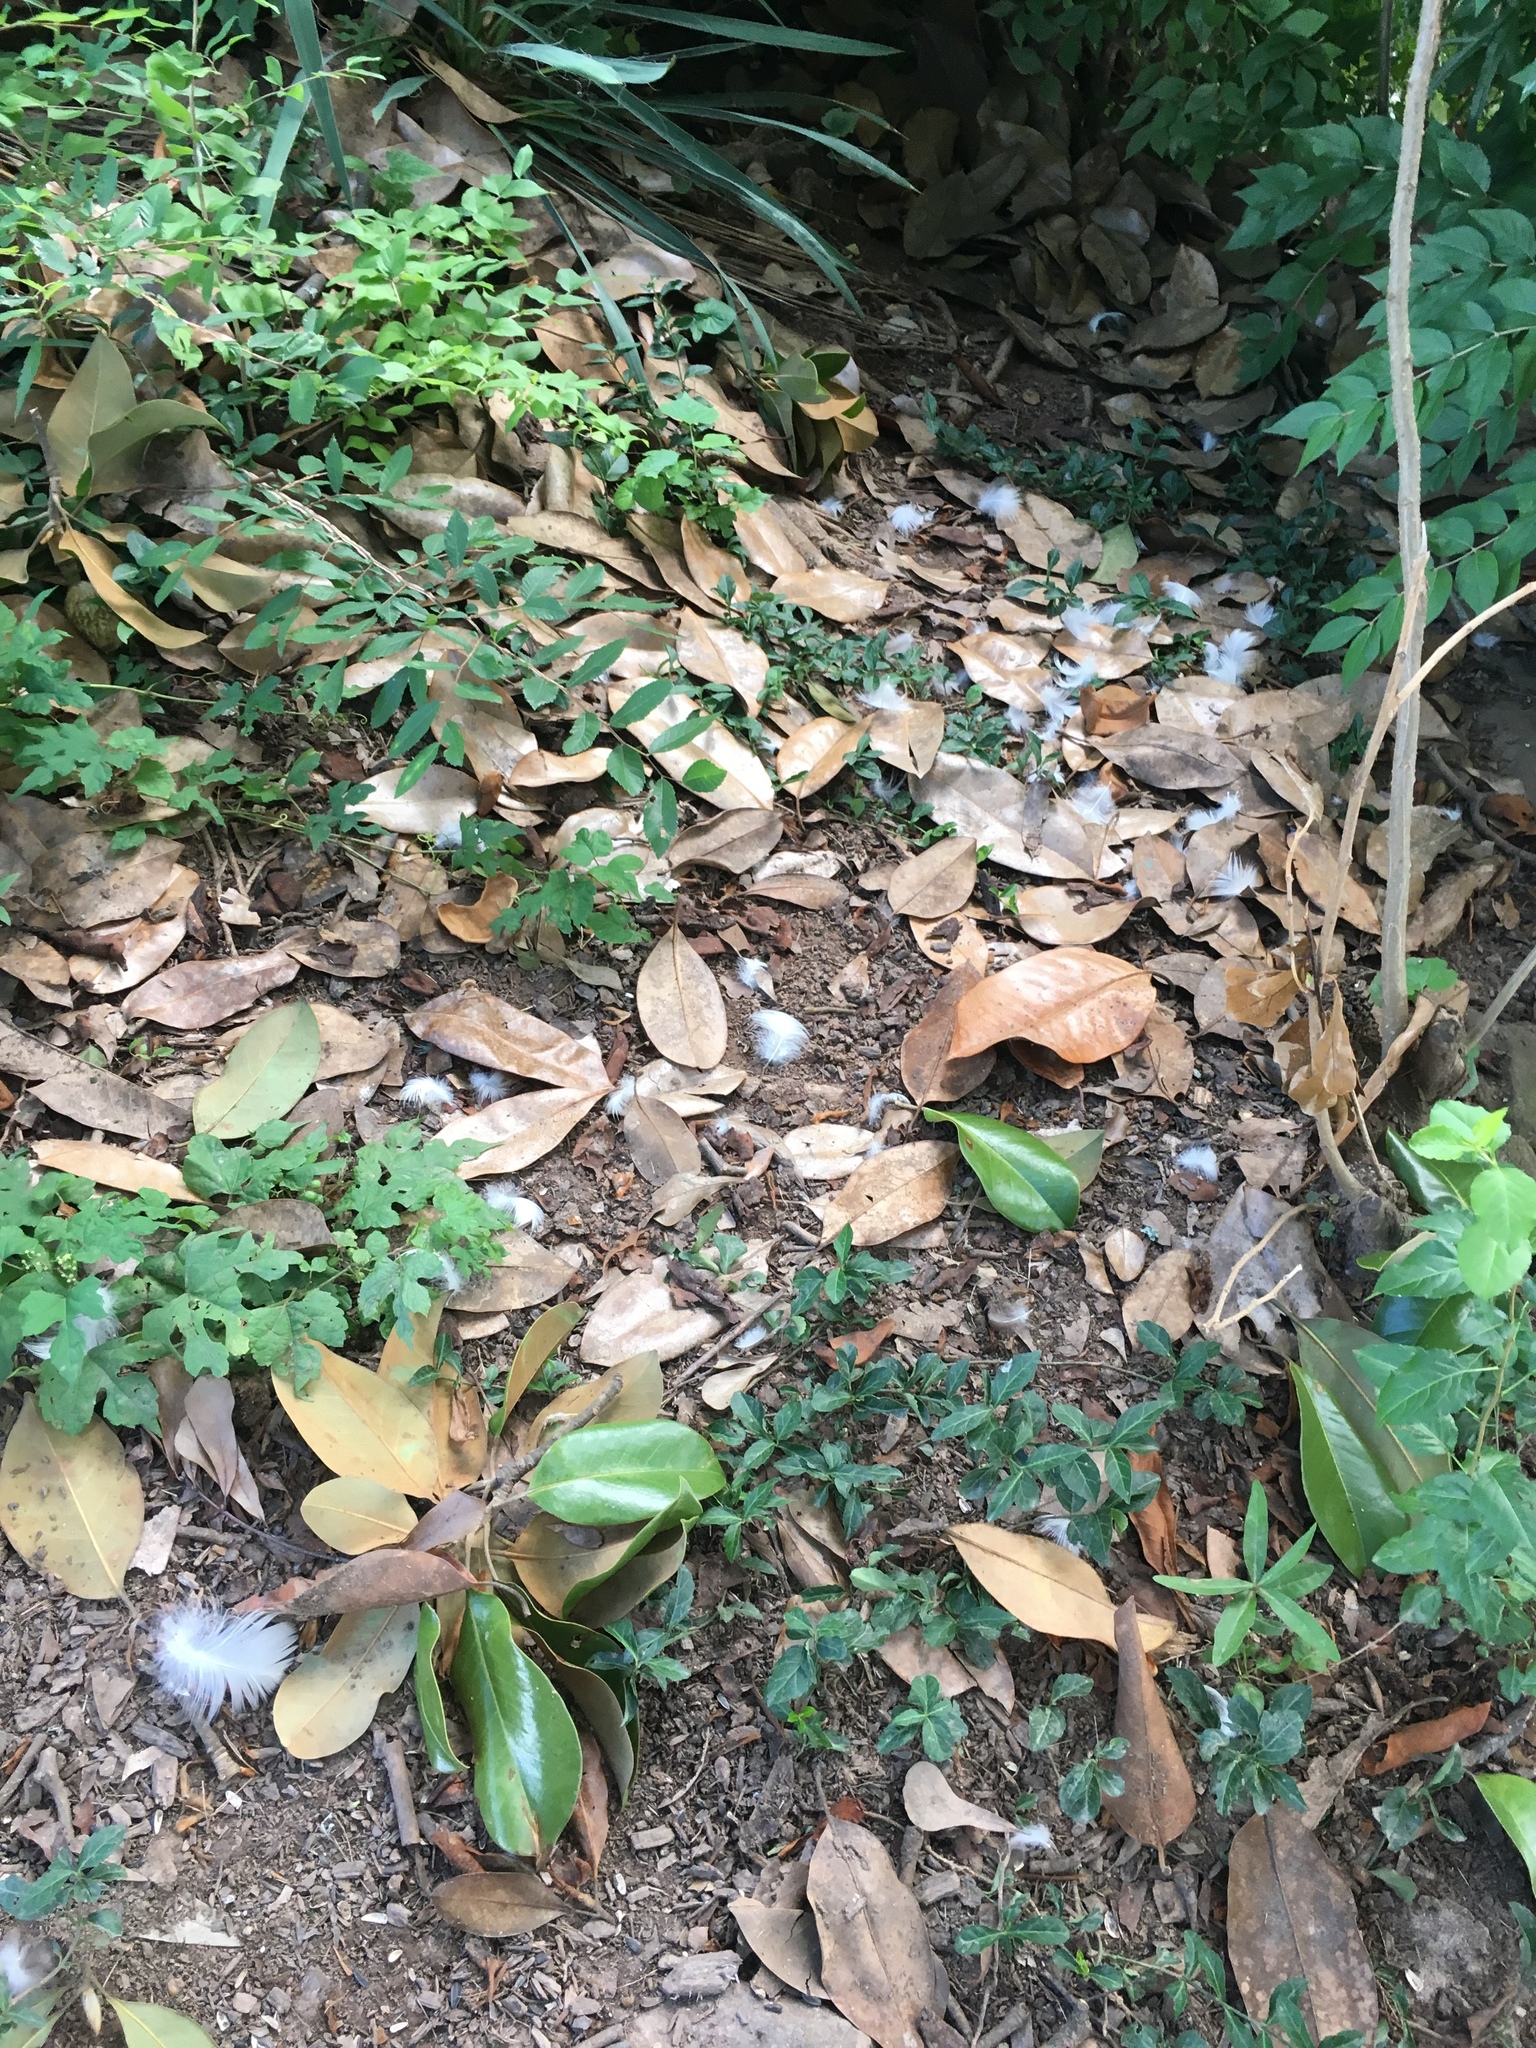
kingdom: Animalia
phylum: Chordata
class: Aves
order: Anseriformes
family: Anatidae
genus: Cairina
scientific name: Cairina moschata
